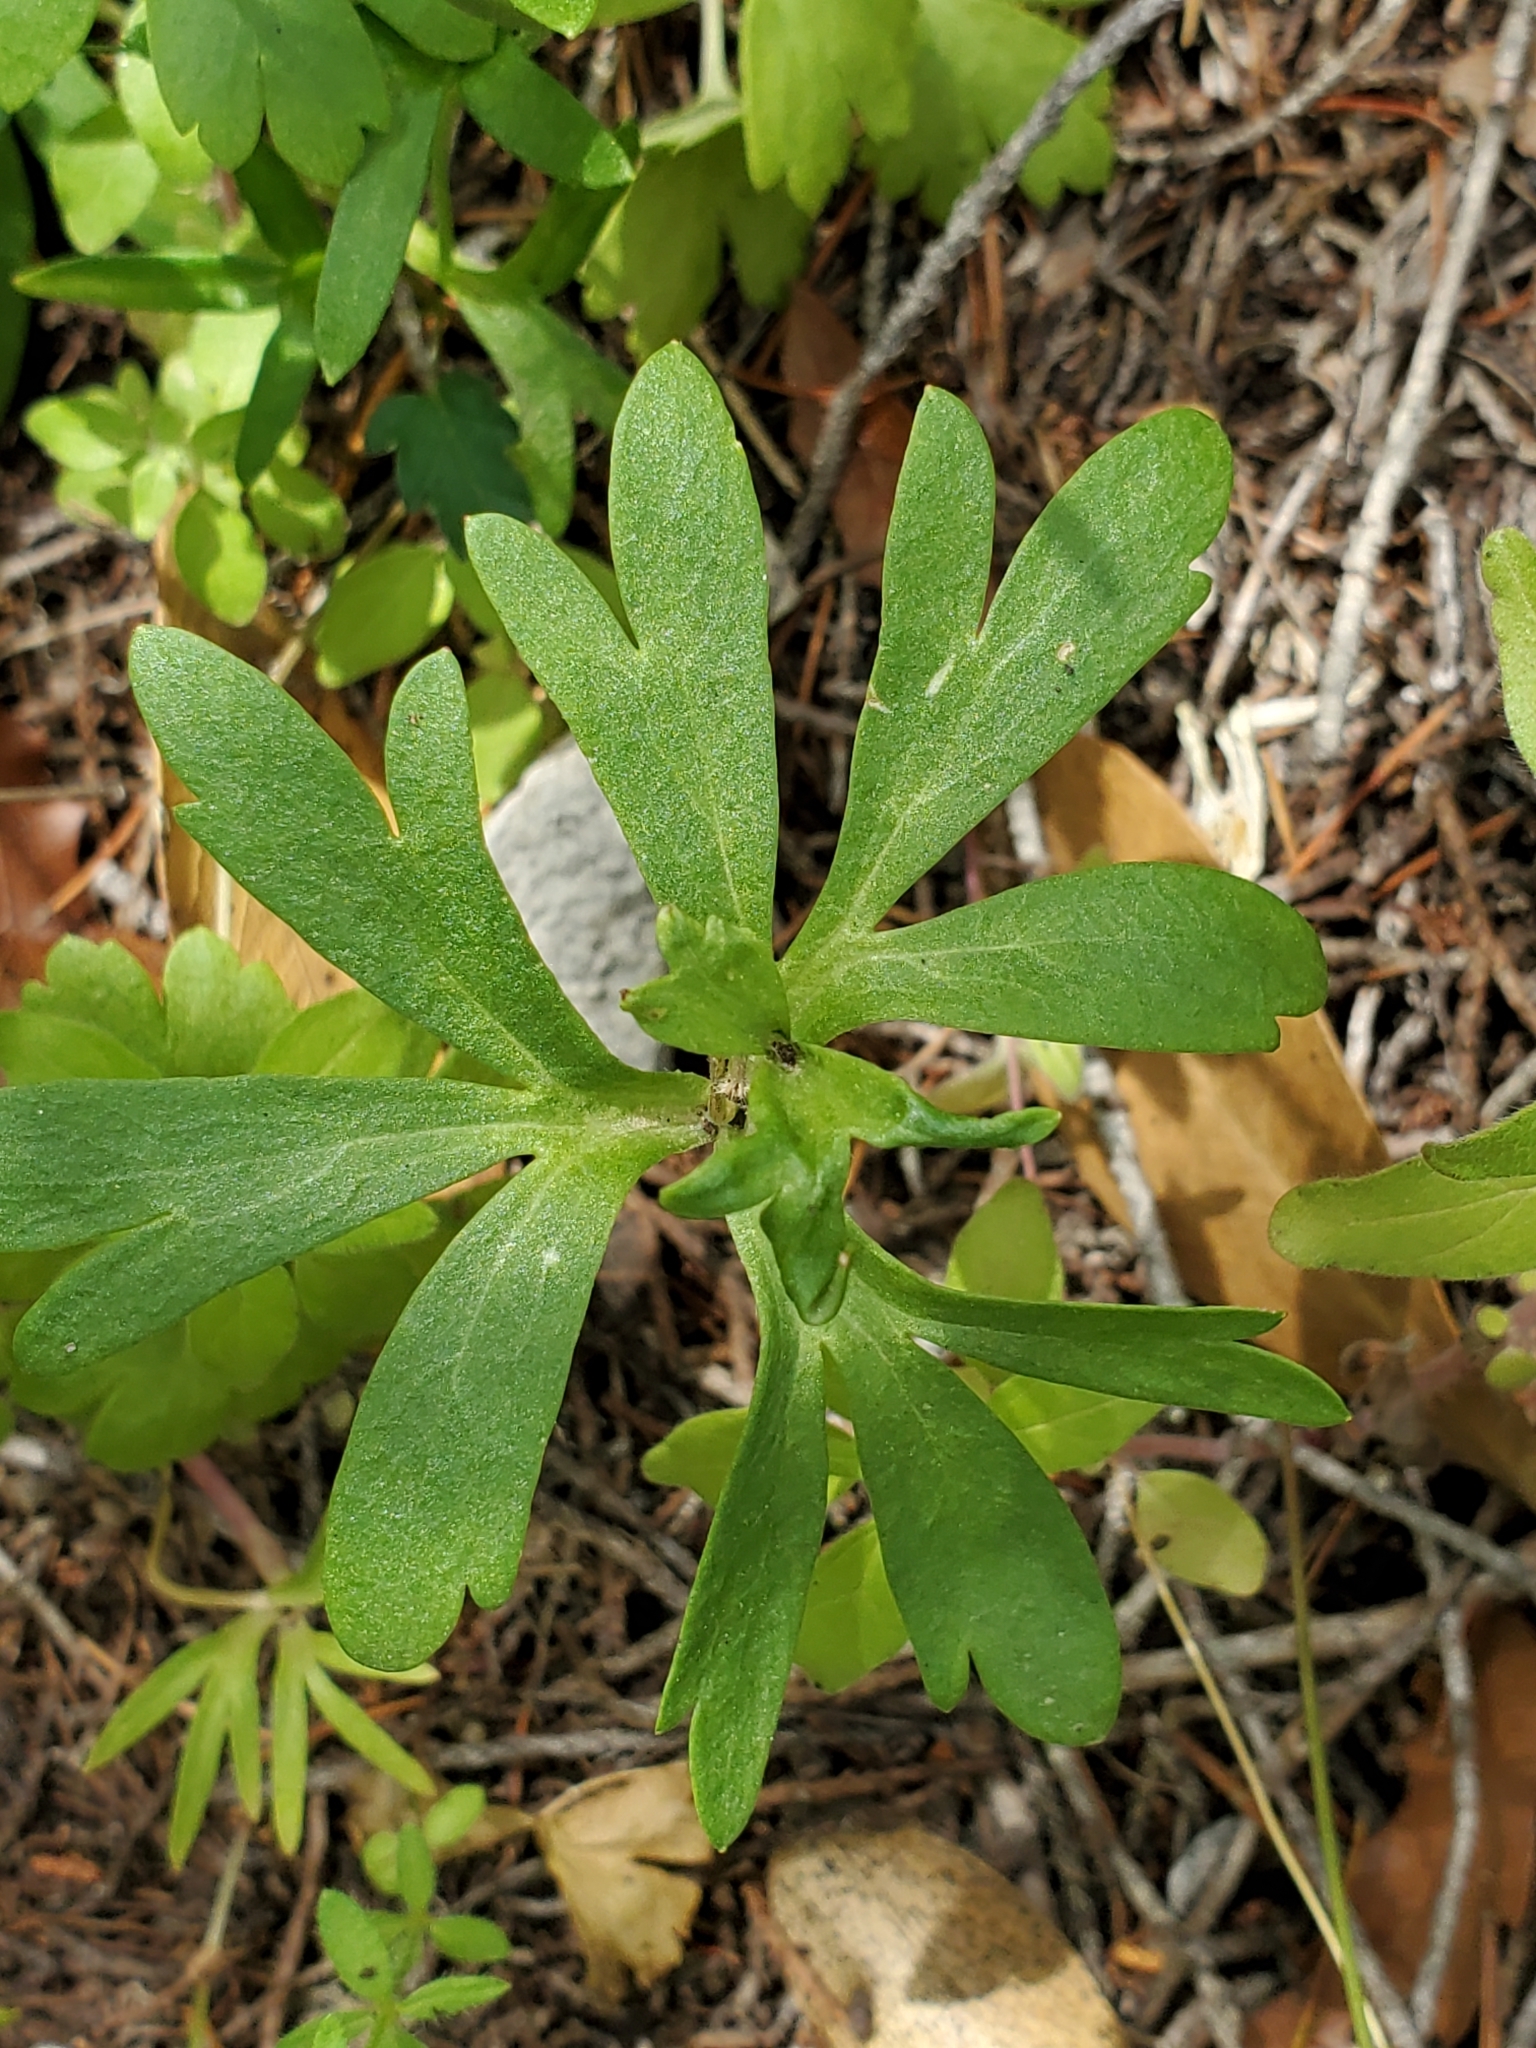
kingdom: Plantae
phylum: Tracheophyta
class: Magnoliopsida
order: Ranunculales
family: Ranunculaceae
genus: Anemone
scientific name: Anemone edwardsiana
